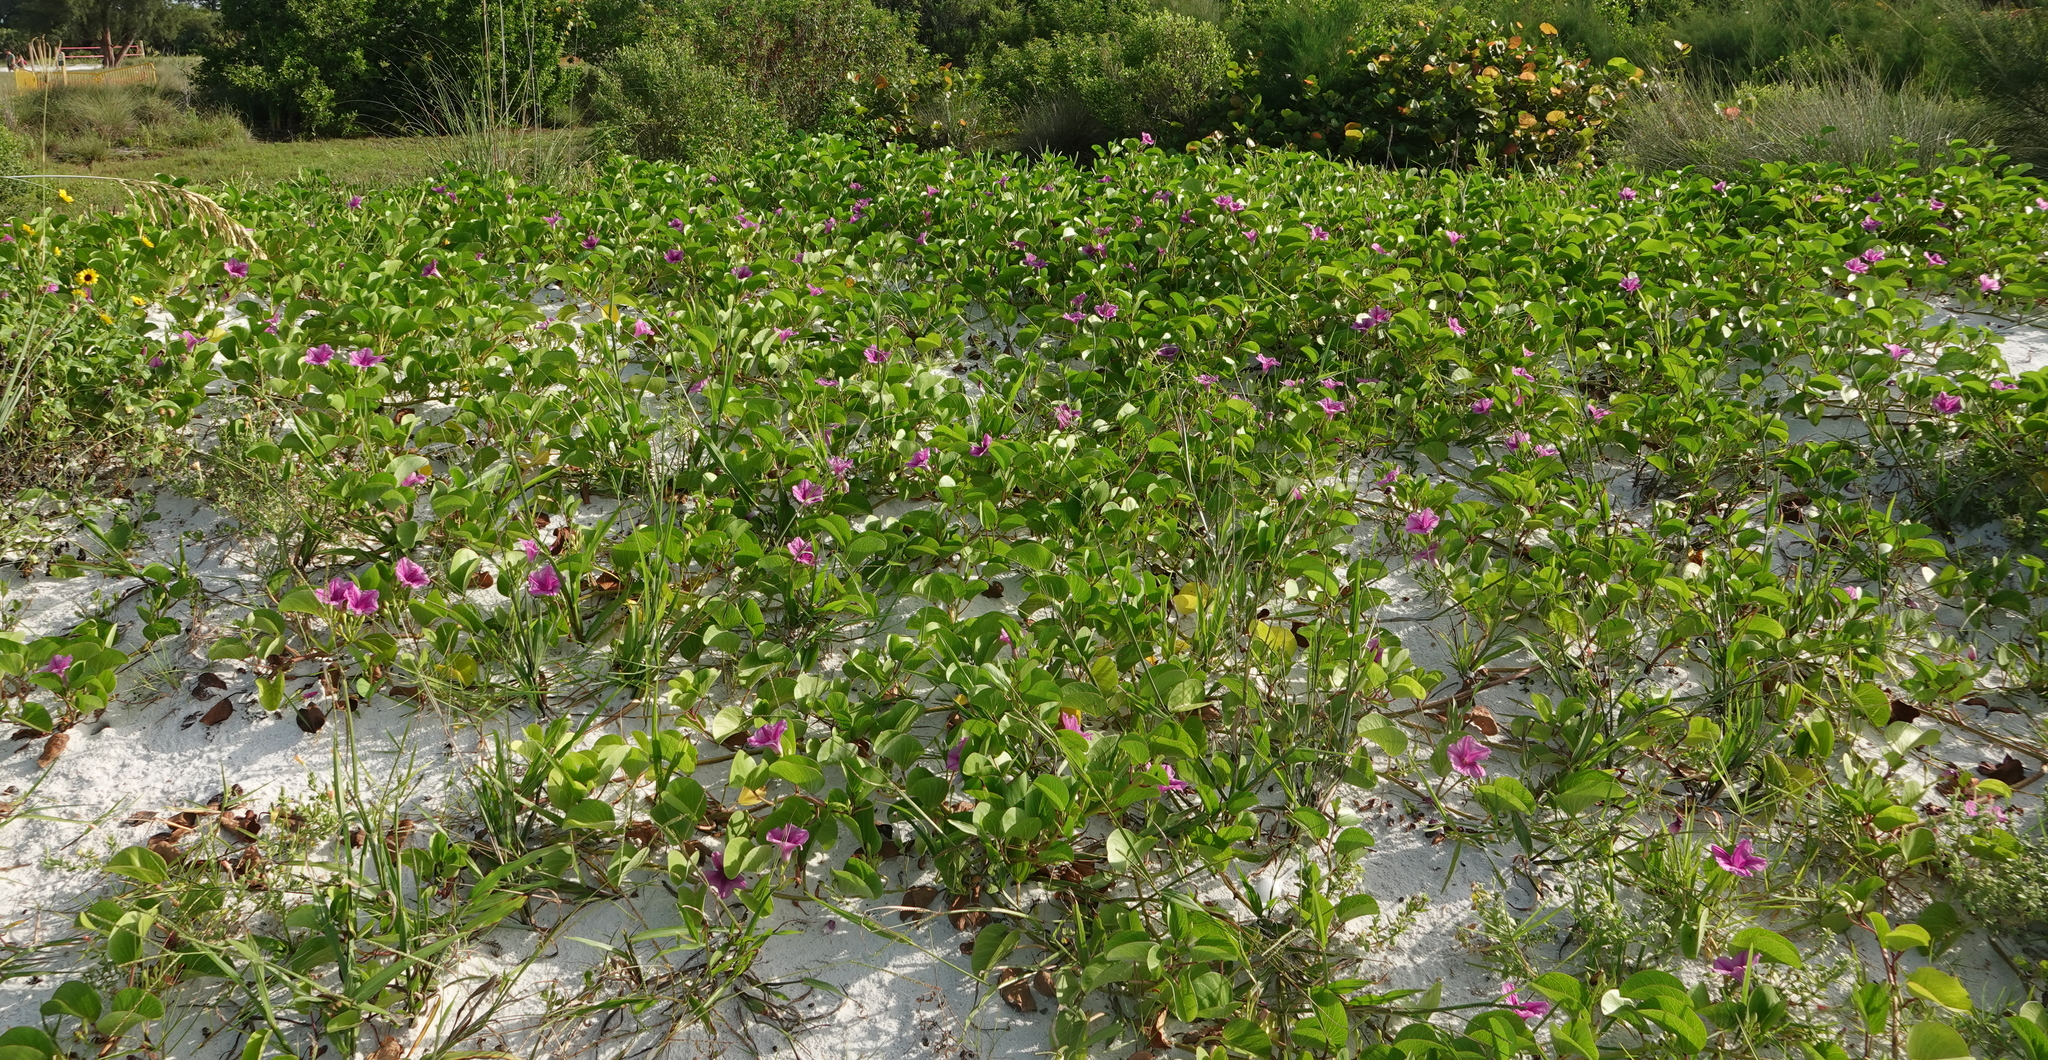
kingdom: Plantae
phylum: Tracheophyta
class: Magnoliopsida
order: Solanales
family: Convolvulaceae
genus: Ipomoea
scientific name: Ipomoea pes-caprae
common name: Beach morning glory
